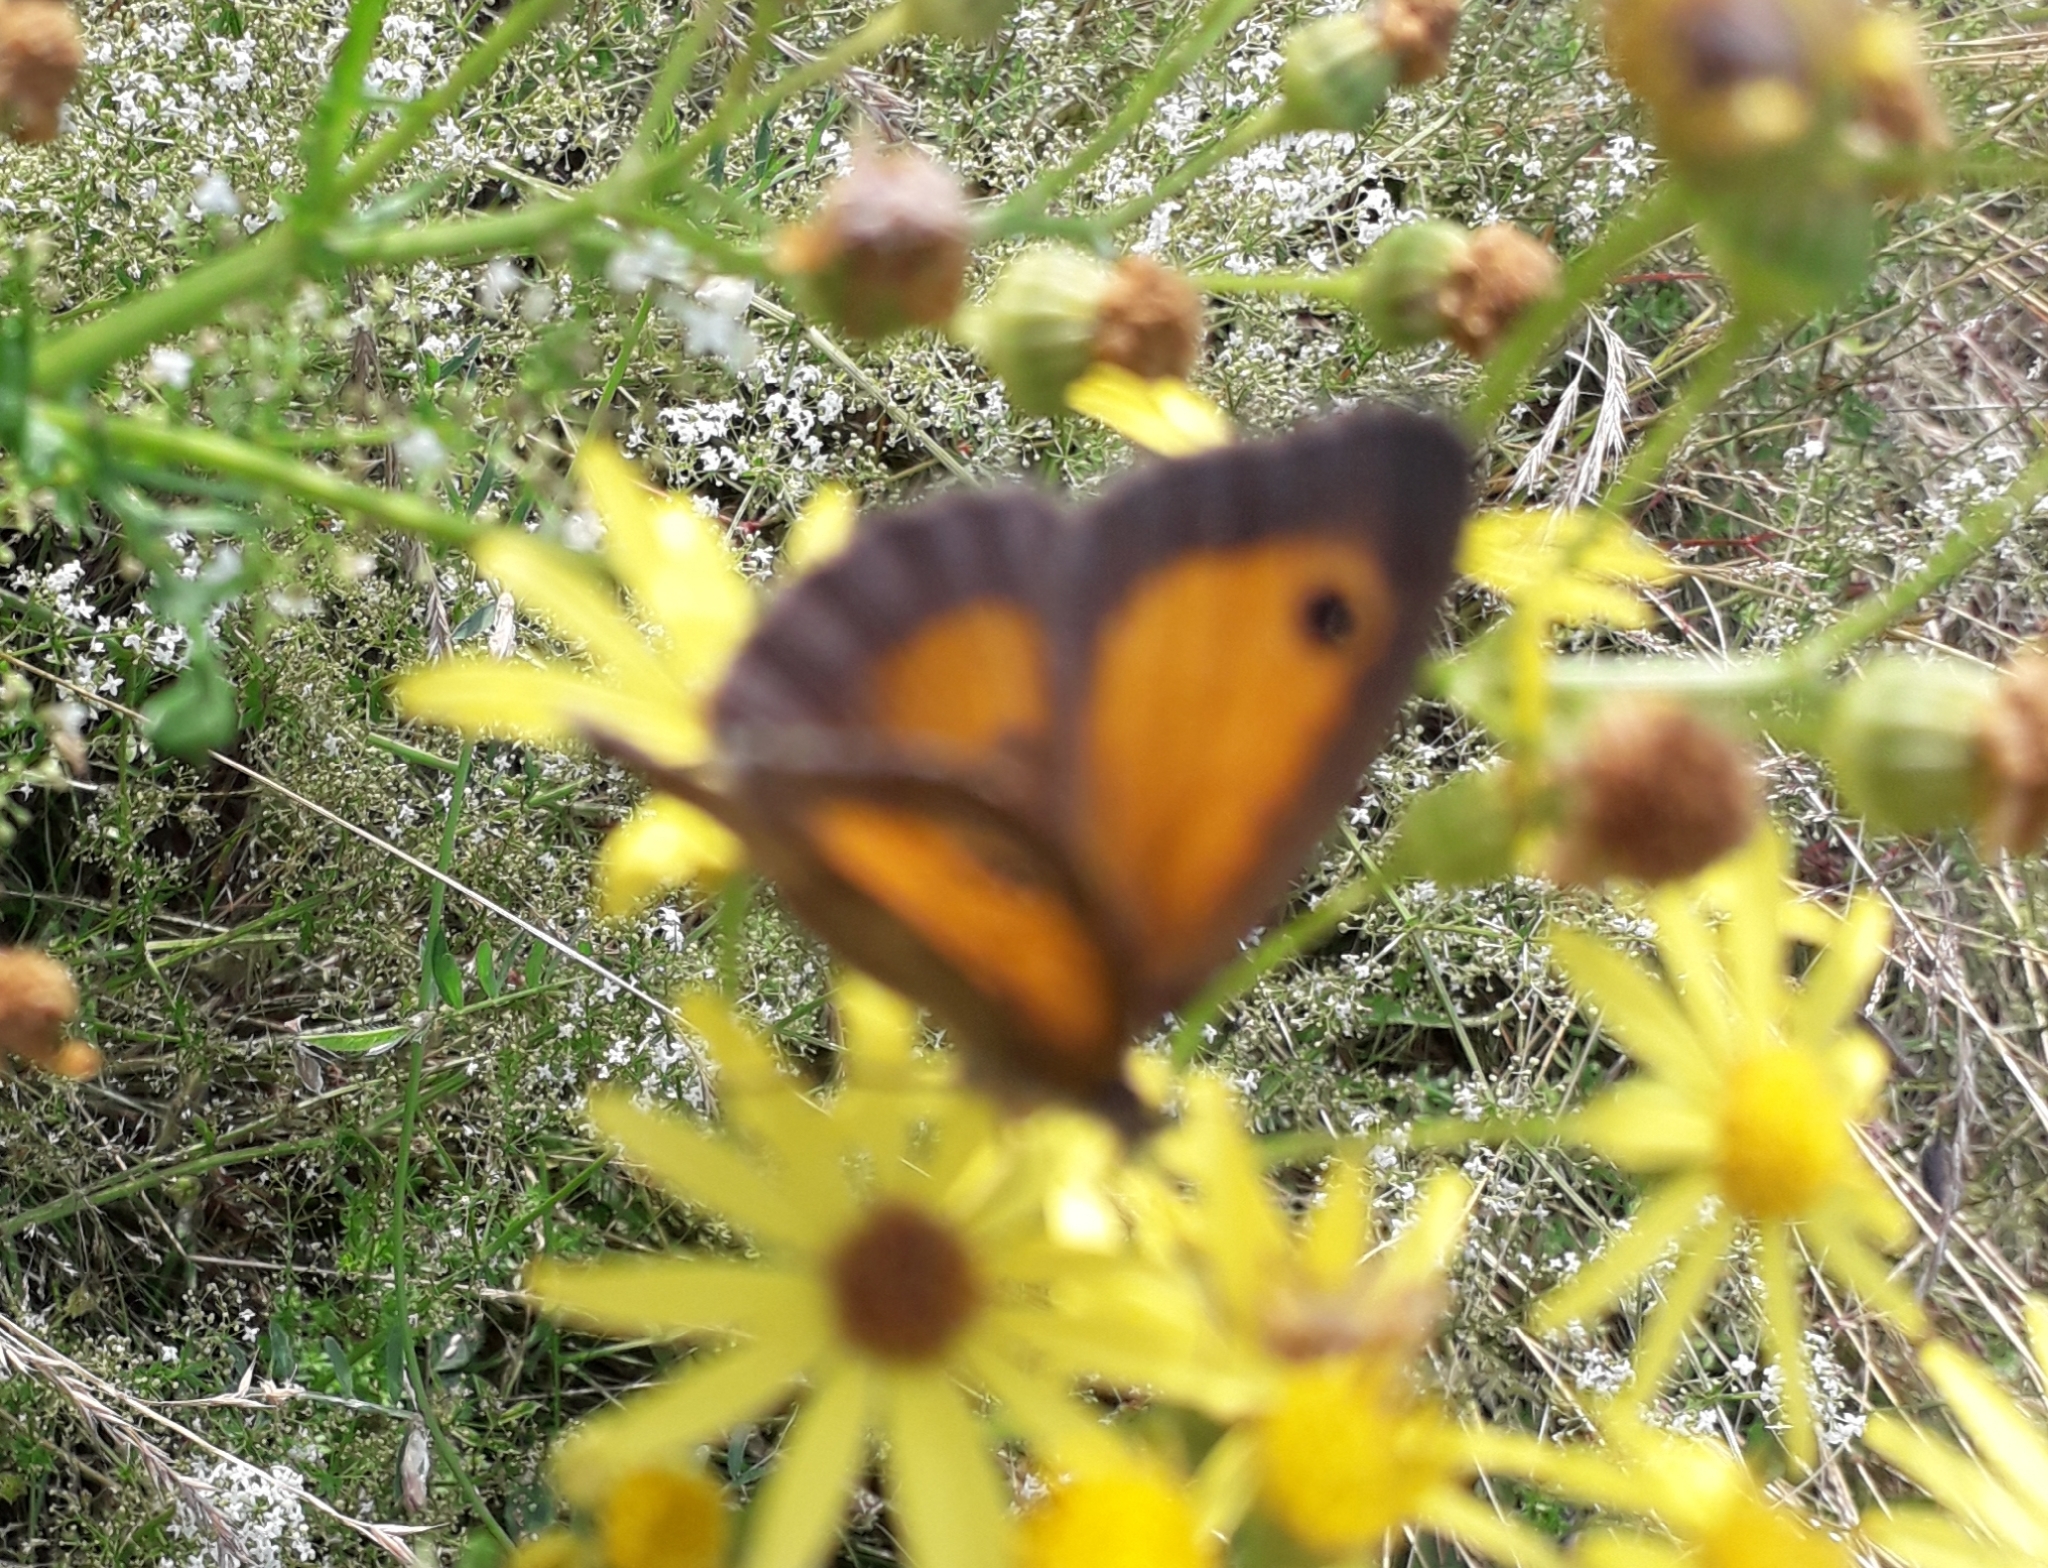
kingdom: Animalia
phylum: Arthropoda
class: Insecta
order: Lepidoptera
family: Nymphalidae
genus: Pyronia
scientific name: Pyronia tithonus
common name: Gatekeeper
